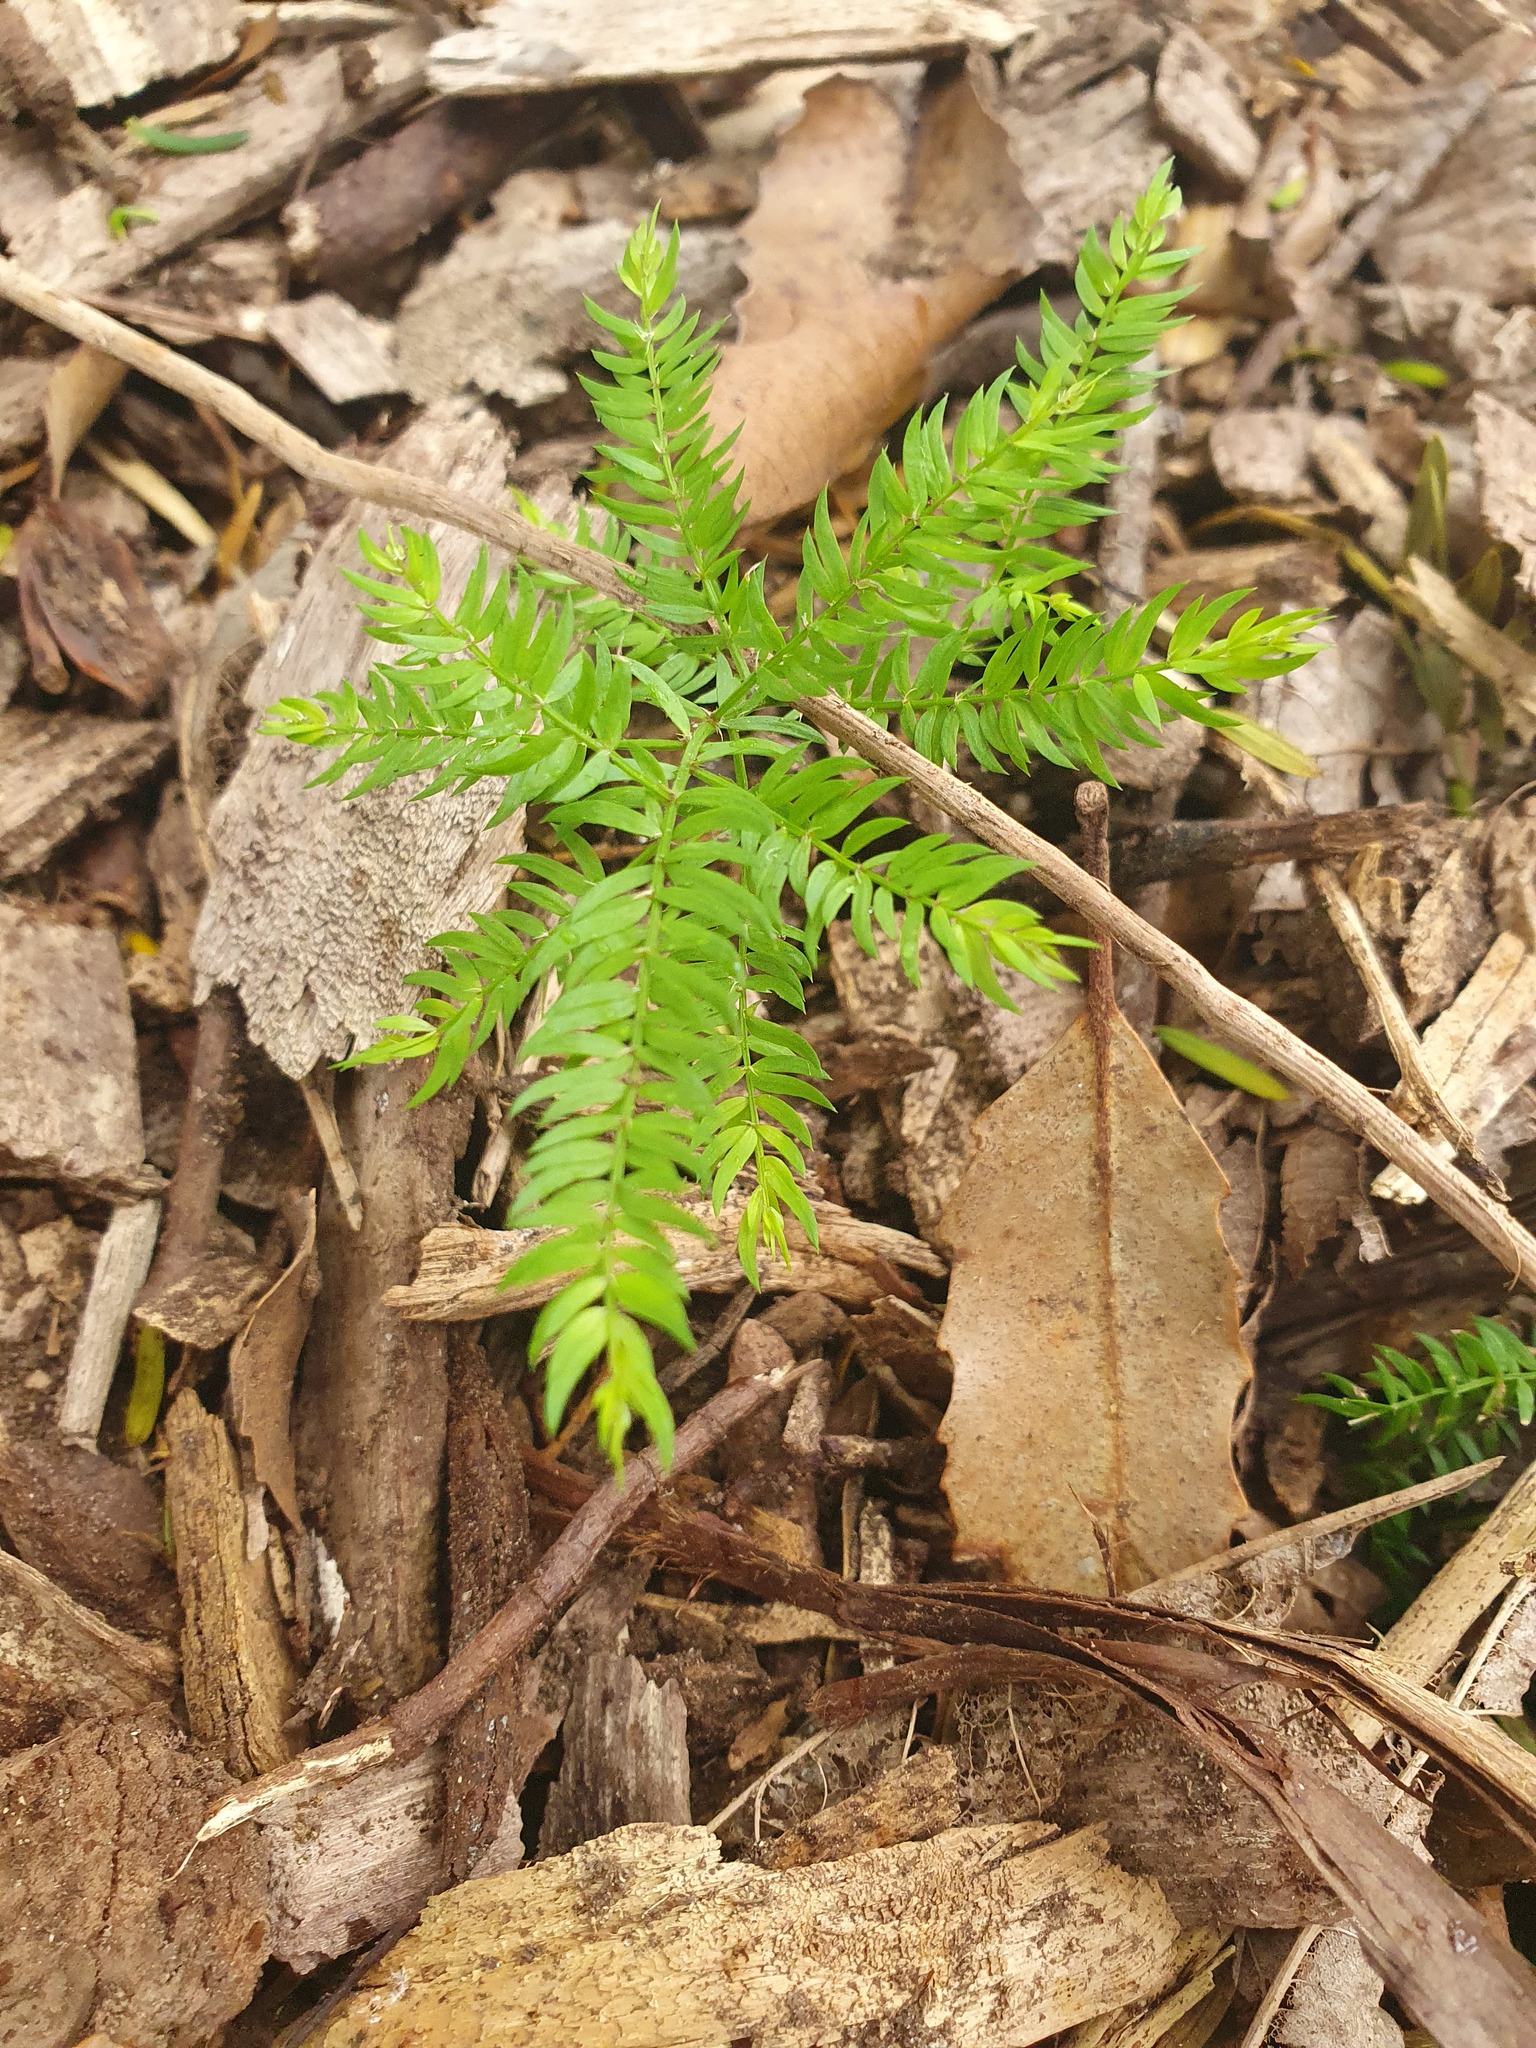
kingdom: Plantae
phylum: Tracheophyta
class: Liliopsida
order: Asparagales
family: Asparagaceae
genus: Asparagus
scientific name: Asparagus scandens
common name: Asparagus-fern
